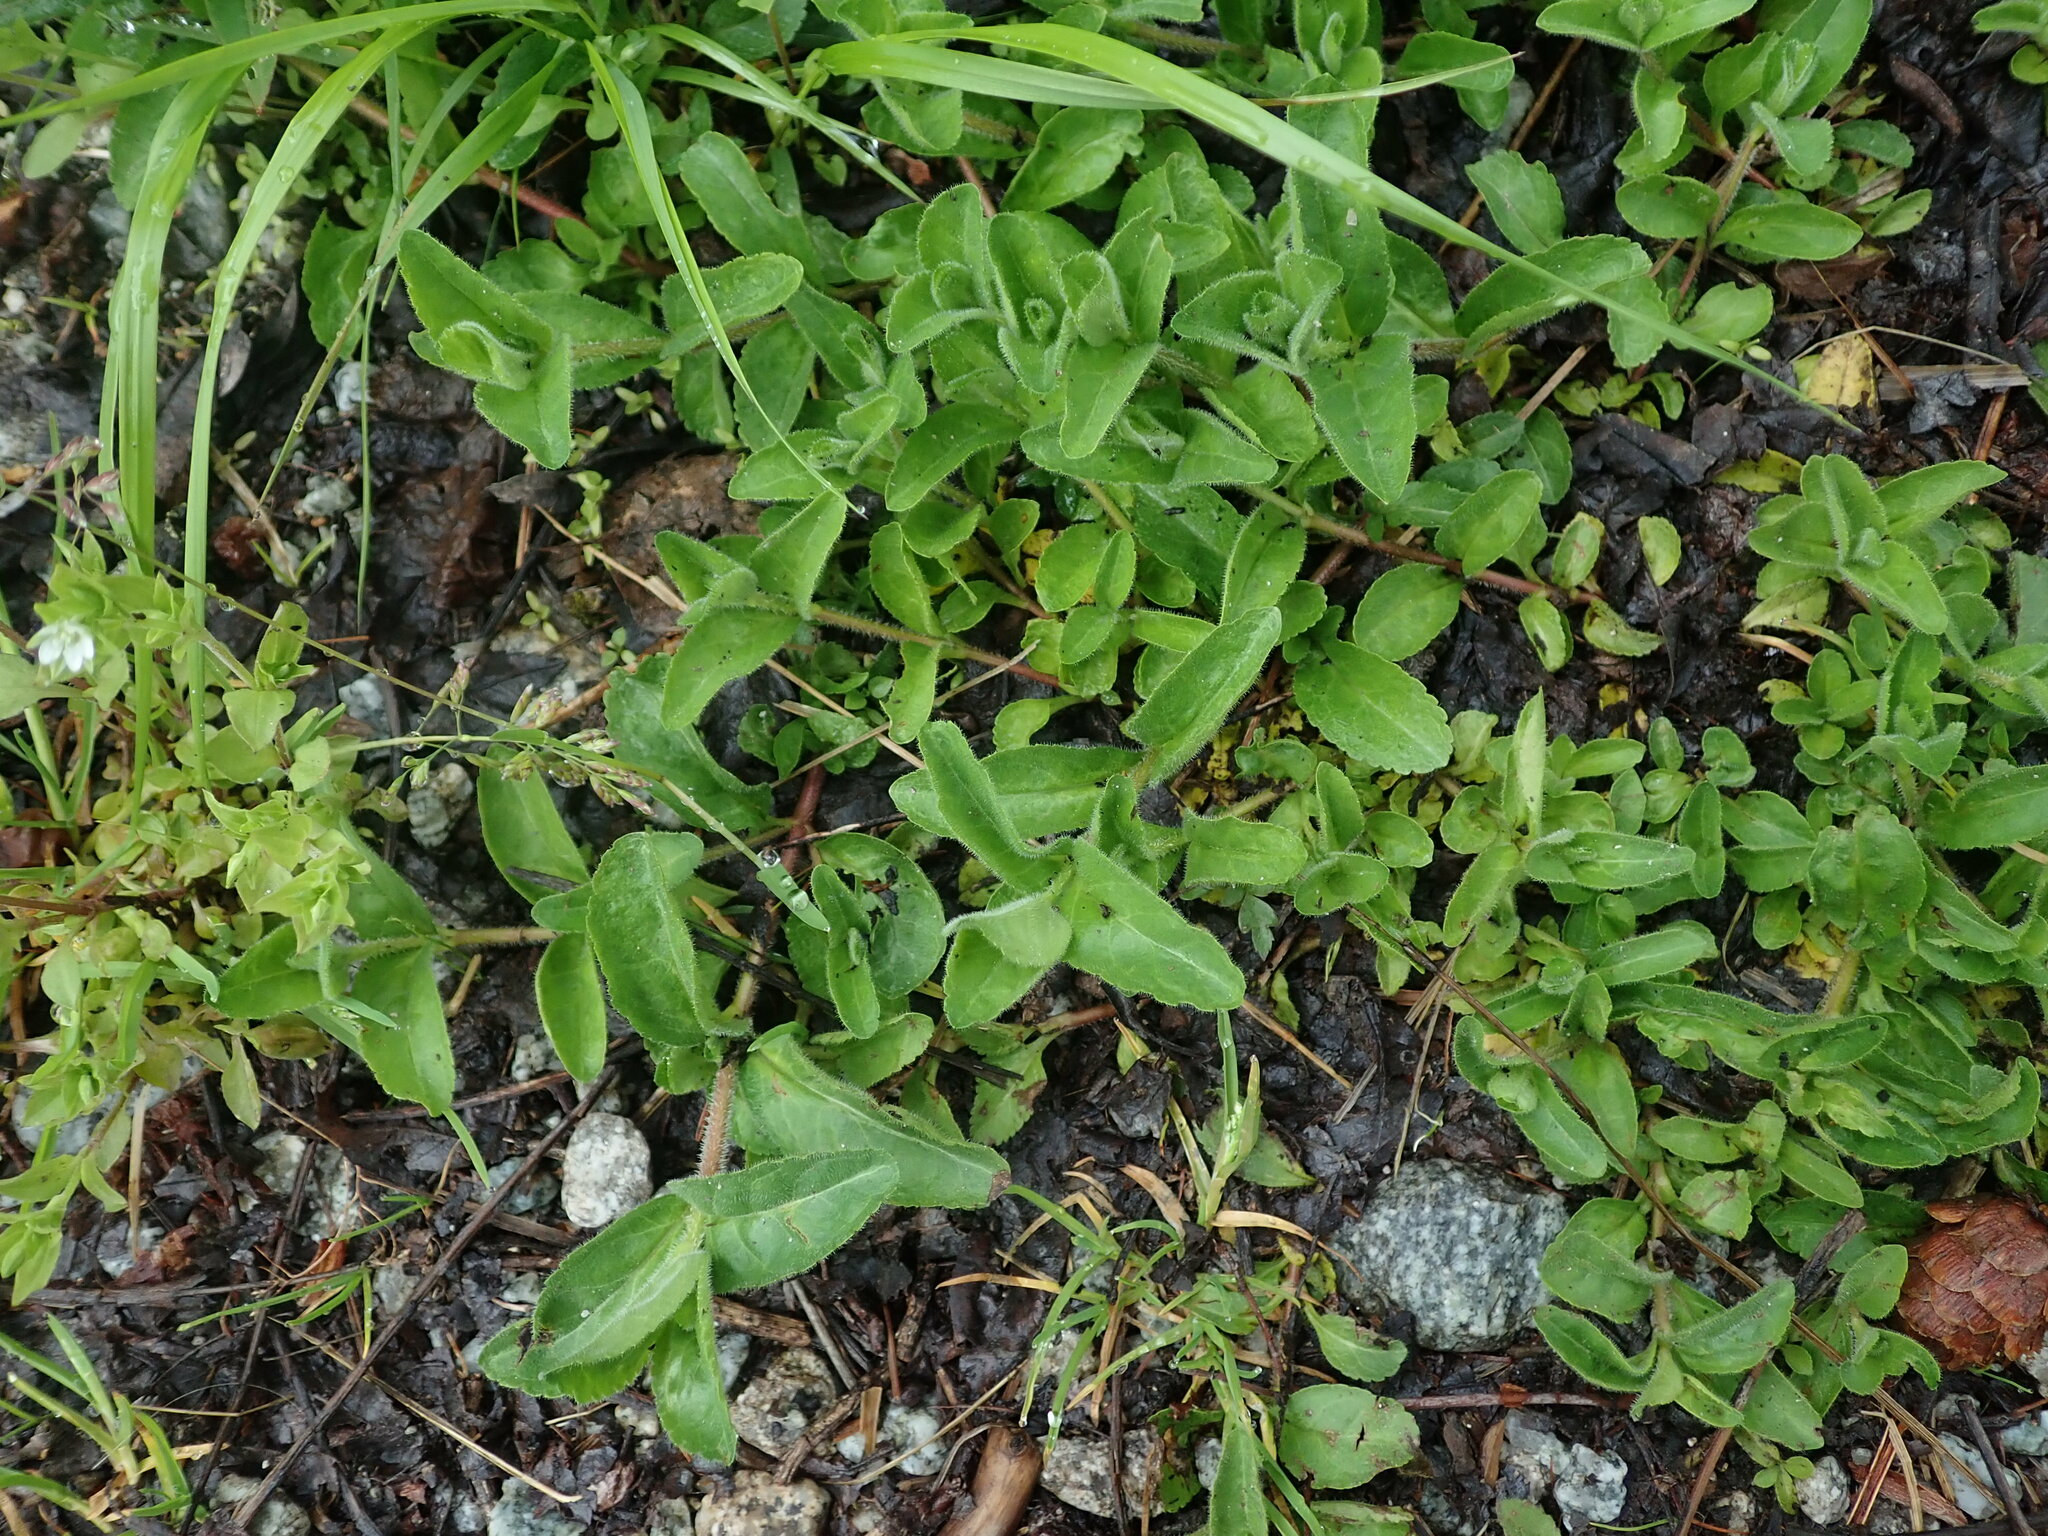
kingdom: Plantae
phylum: Tracheophyta
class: Magnoliopsida
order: Lamiales
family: Plantaginaceae
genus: Veronica
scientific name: Veronica officinalis
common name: Common speedwell
